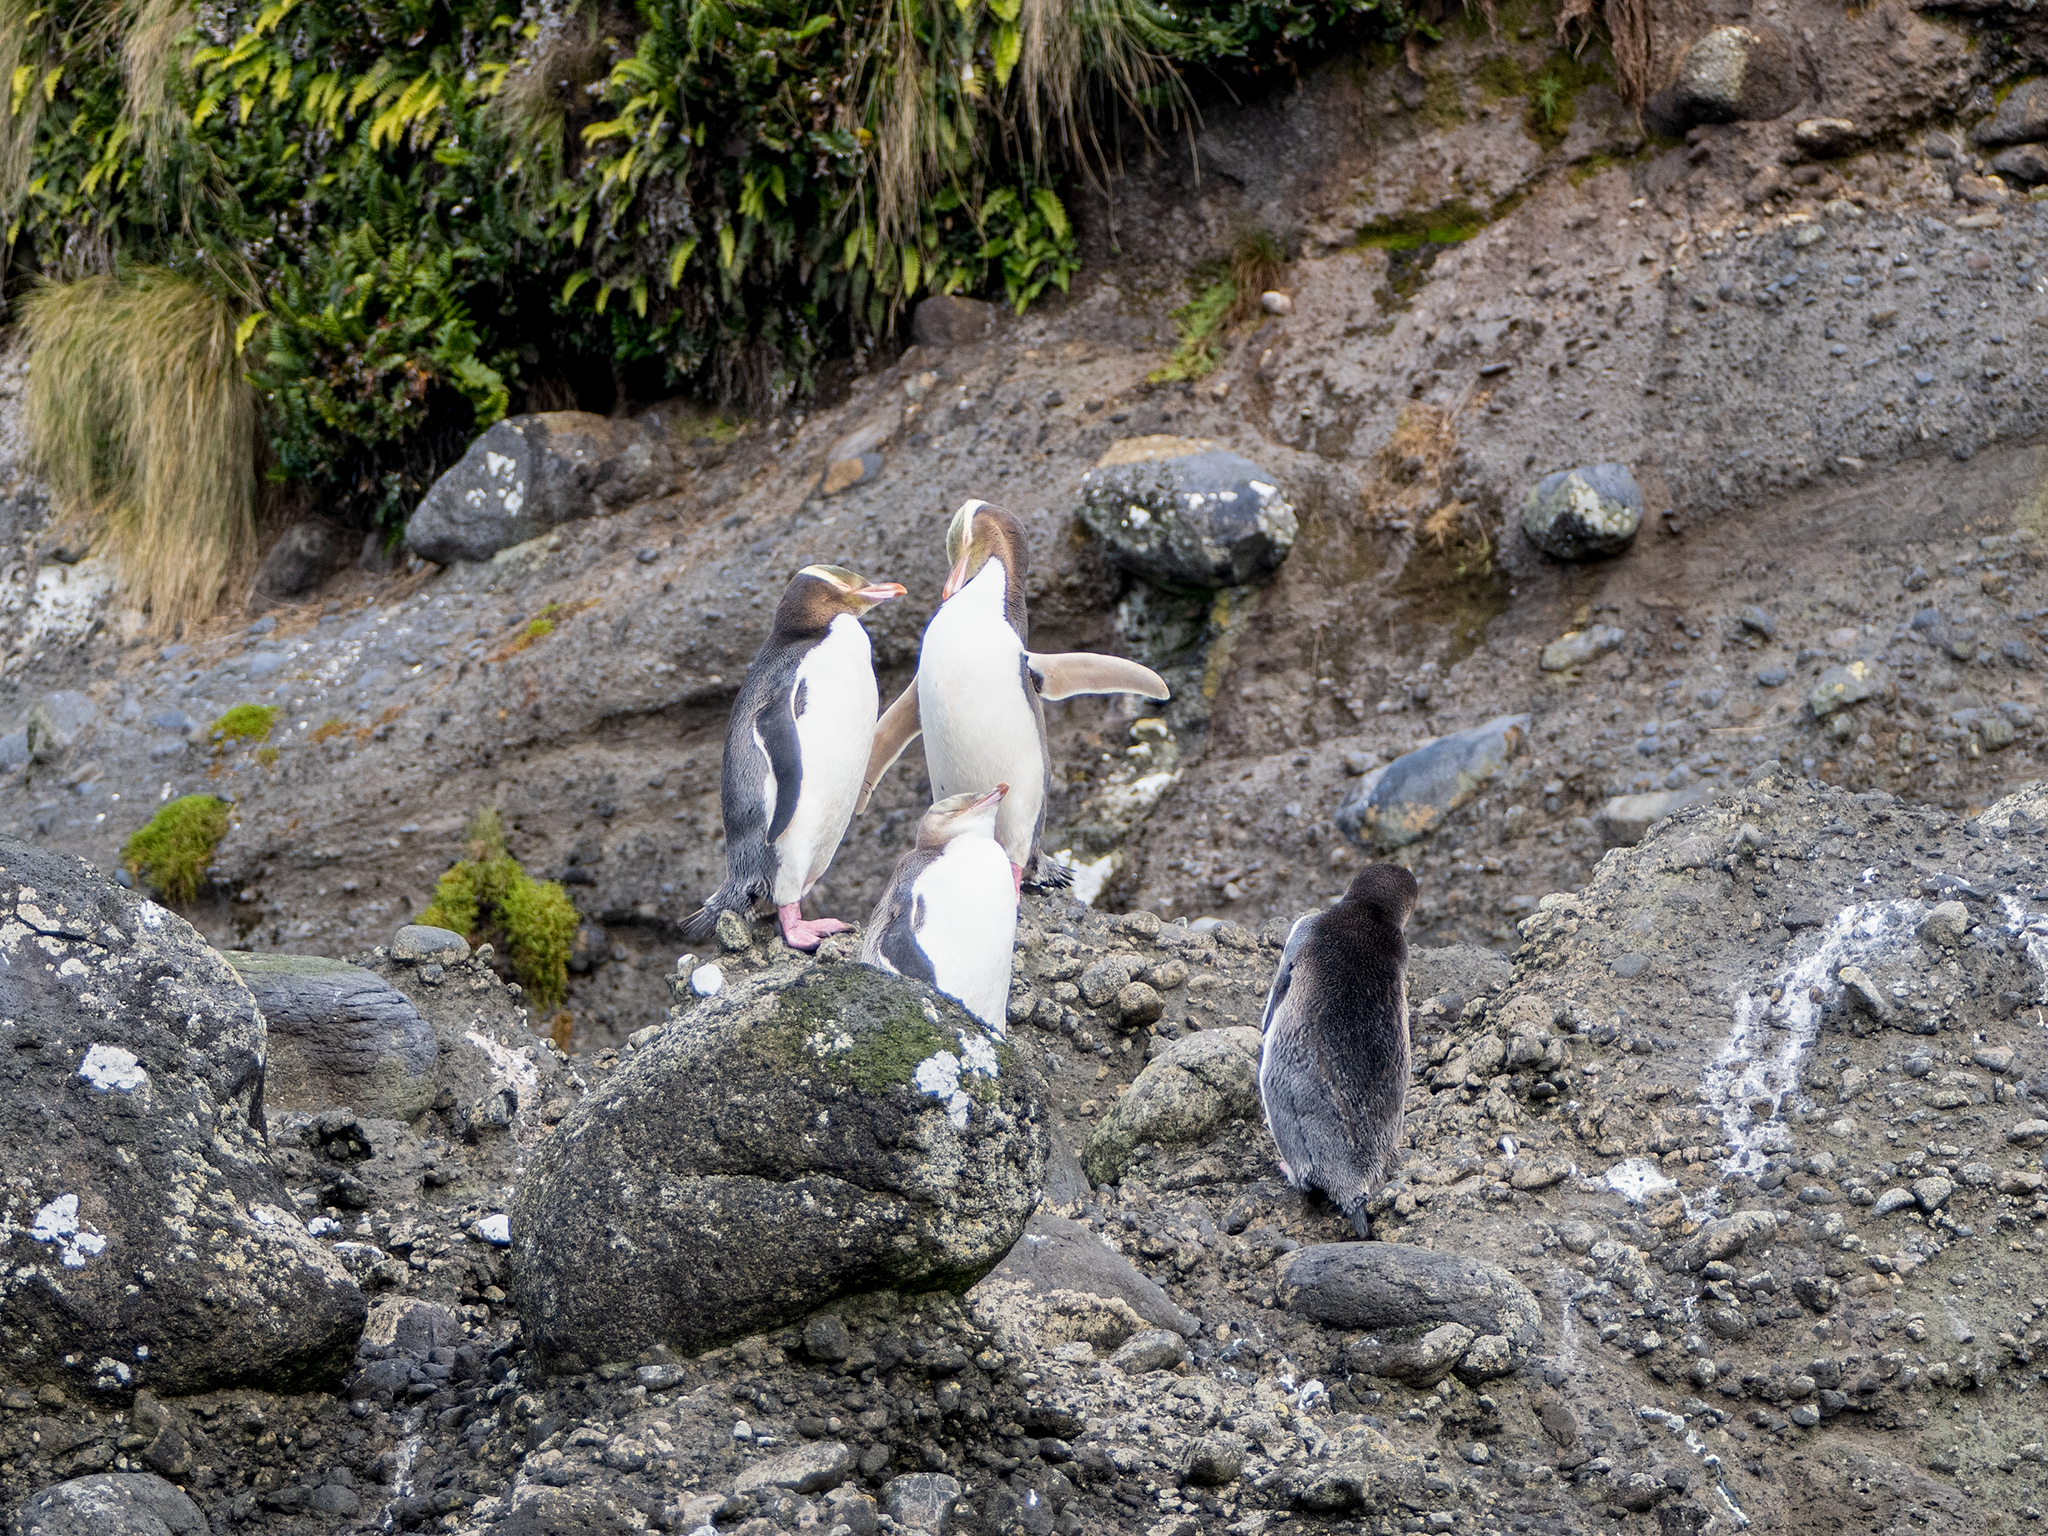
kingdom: Animalia
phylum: Chordata
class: Aves
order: Sphenisciformes
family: Spheniscidae
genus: Megadyptes
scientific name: Megadyptes antipodes
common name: Yellow-eyed penguin
